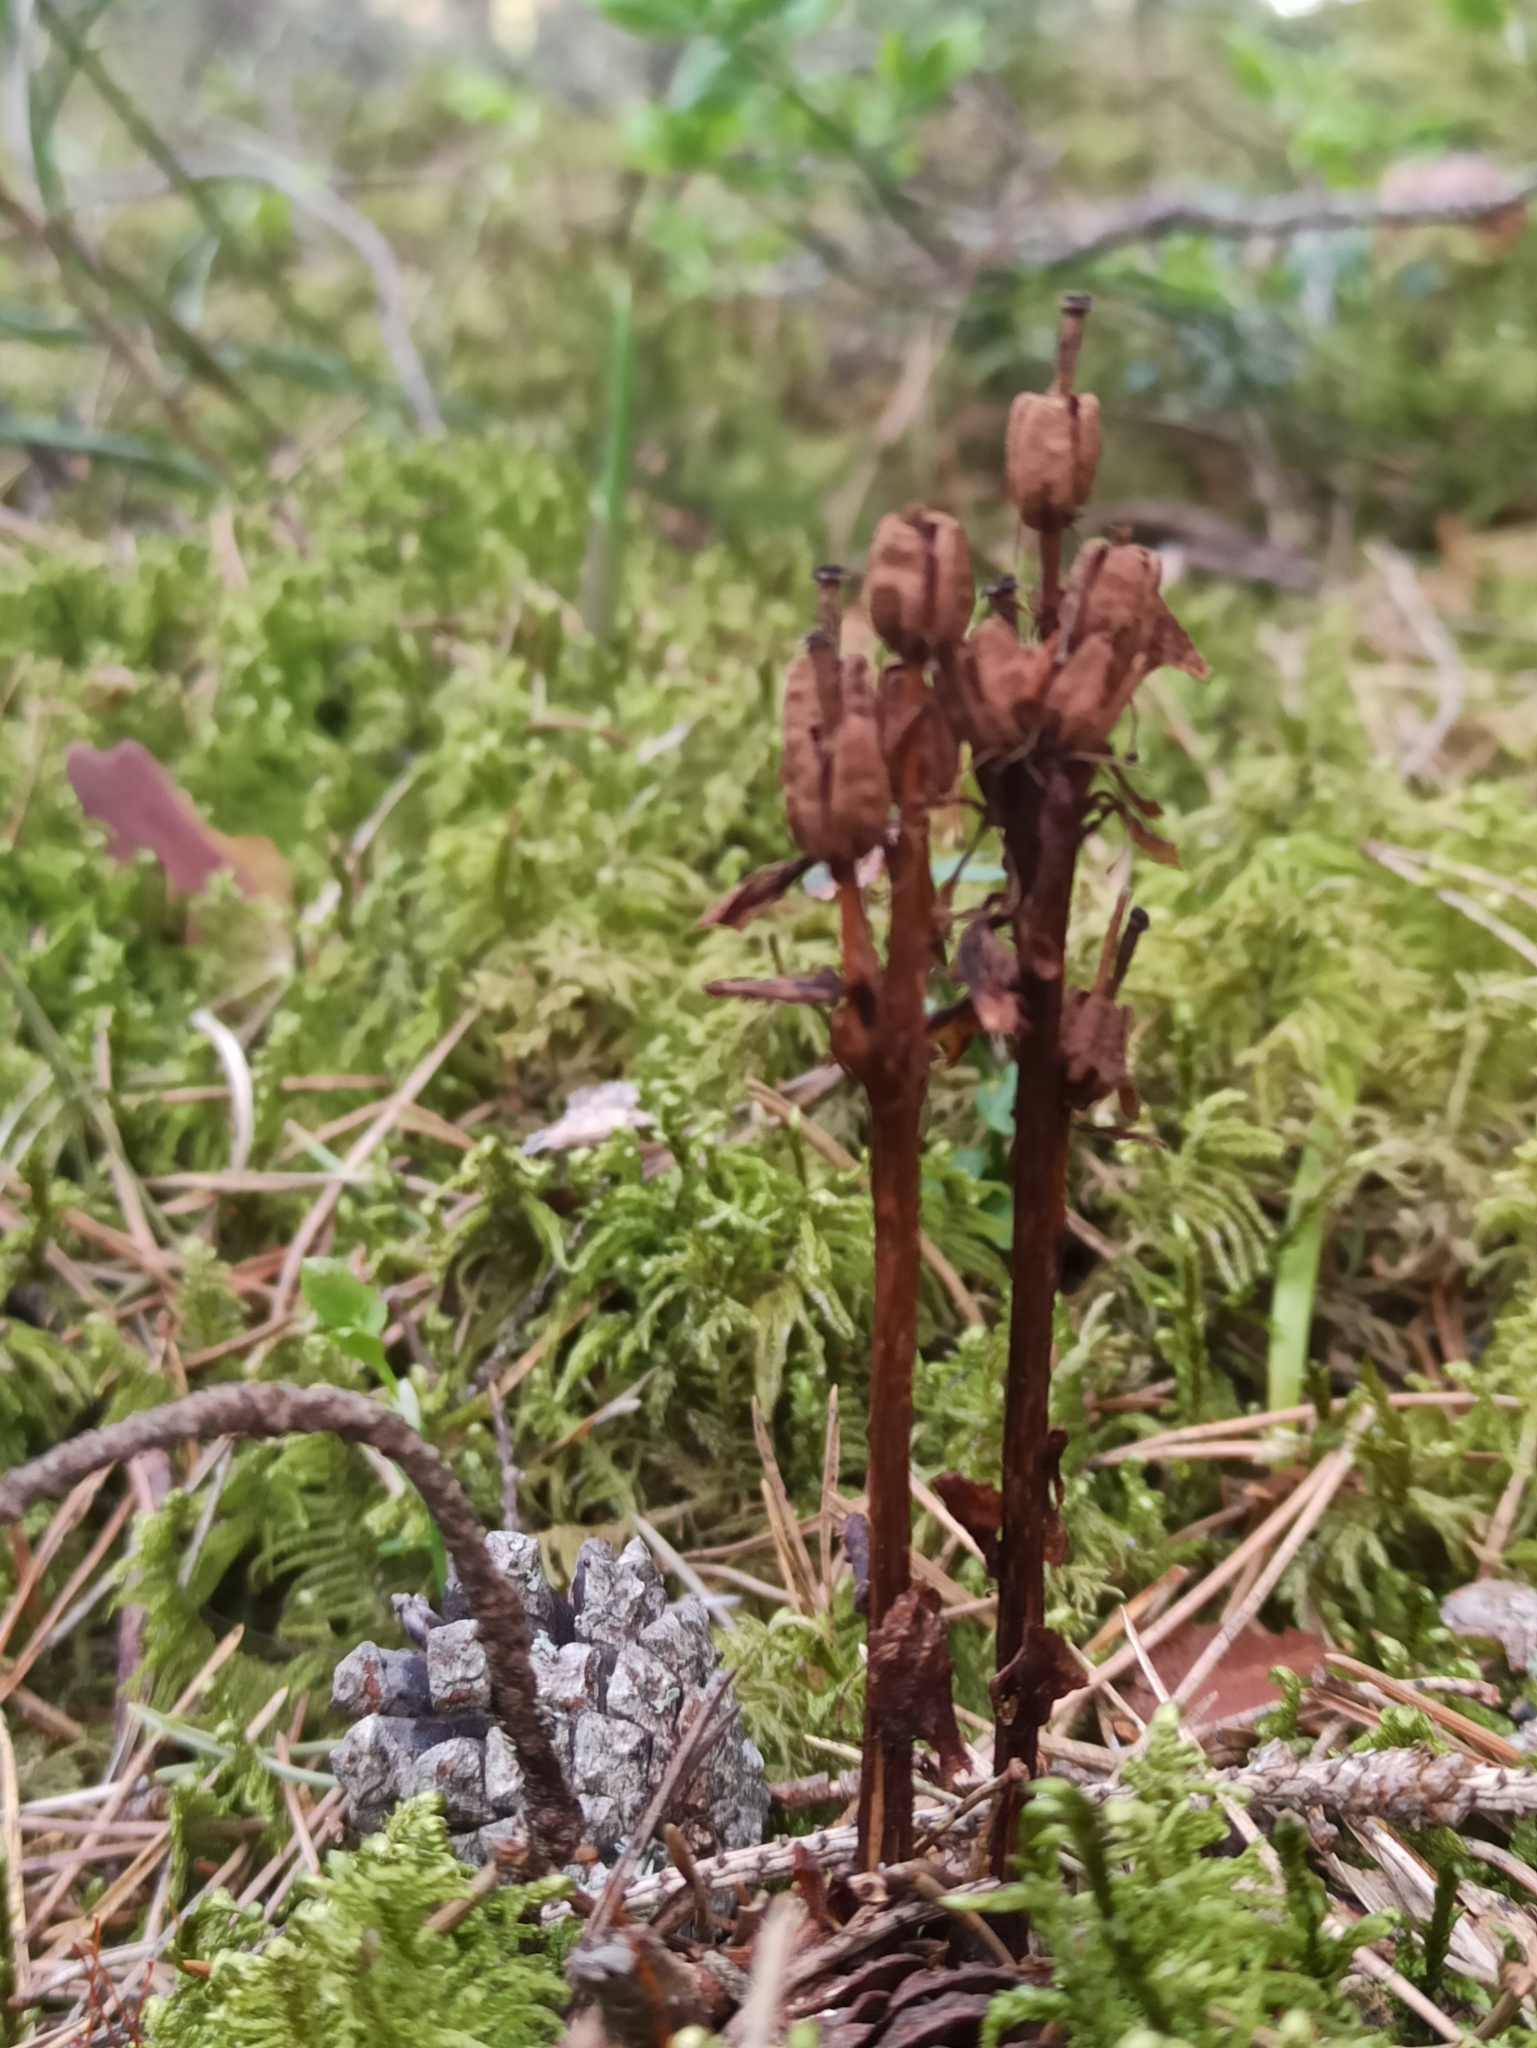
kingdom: Plantae
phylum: Tracheophyta
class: Magnoliopsida
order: Ericales
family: Ericaceae
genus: Hypopitys
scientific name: Hypopitys monotropa
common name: Yellow bird's-nest
